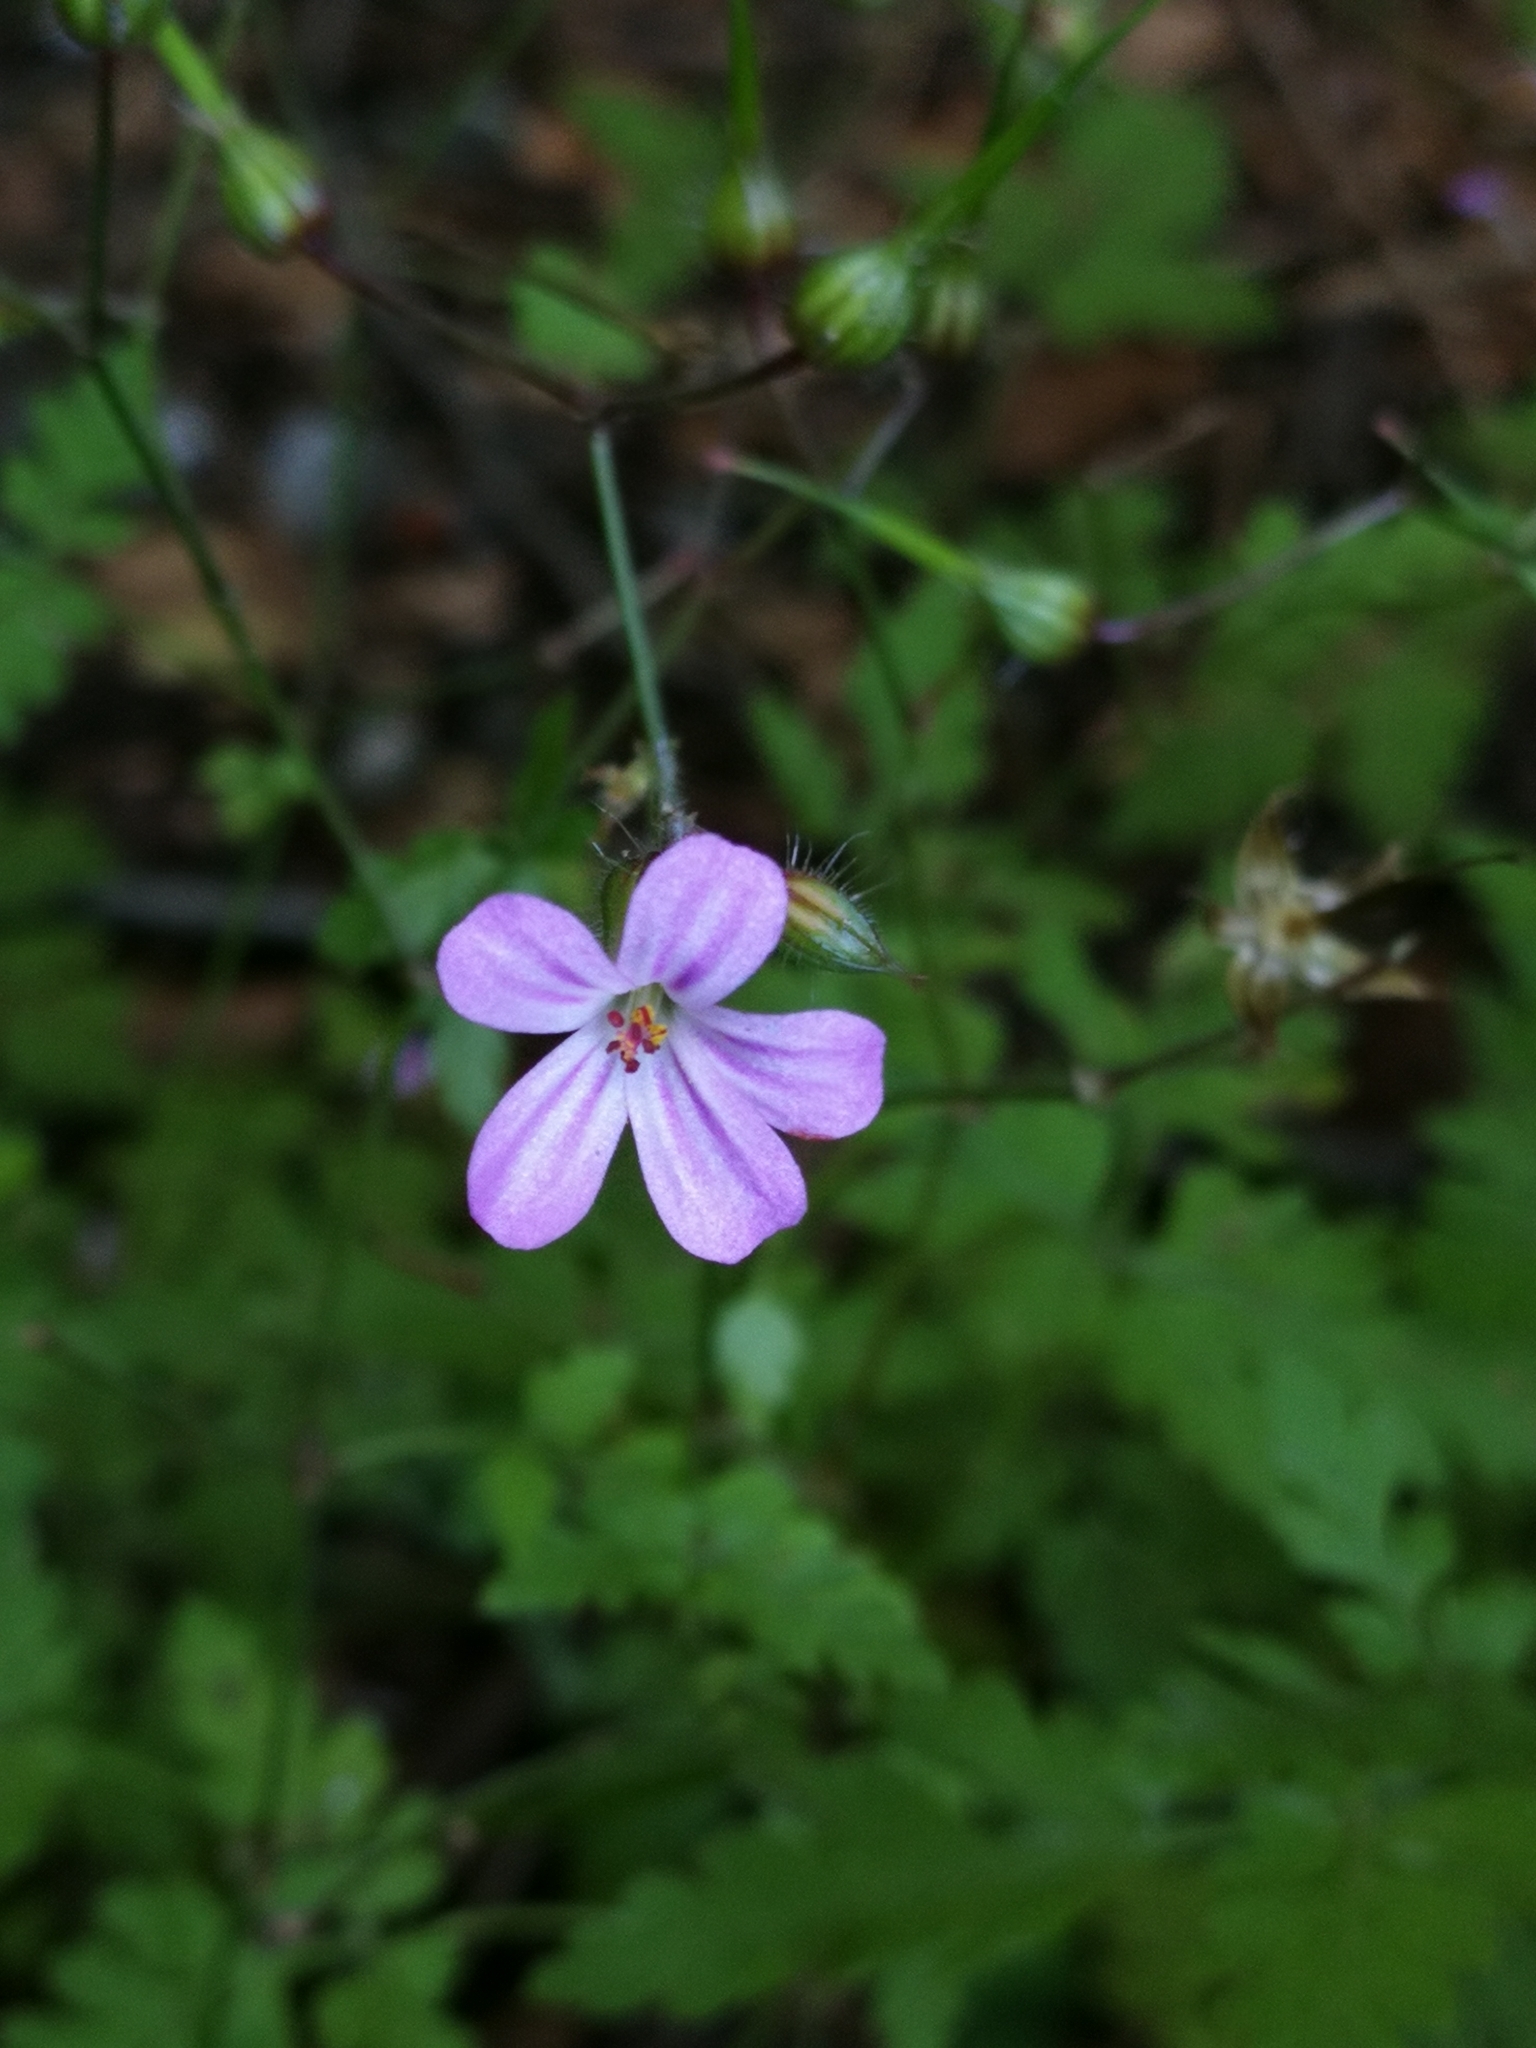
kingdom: Plantae
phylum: Tracheophyta
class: Magnoliopsida
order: Geraniales
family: Geraniaceae
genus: Geranium
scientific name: Geranium robertianum
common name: Herb-robert
